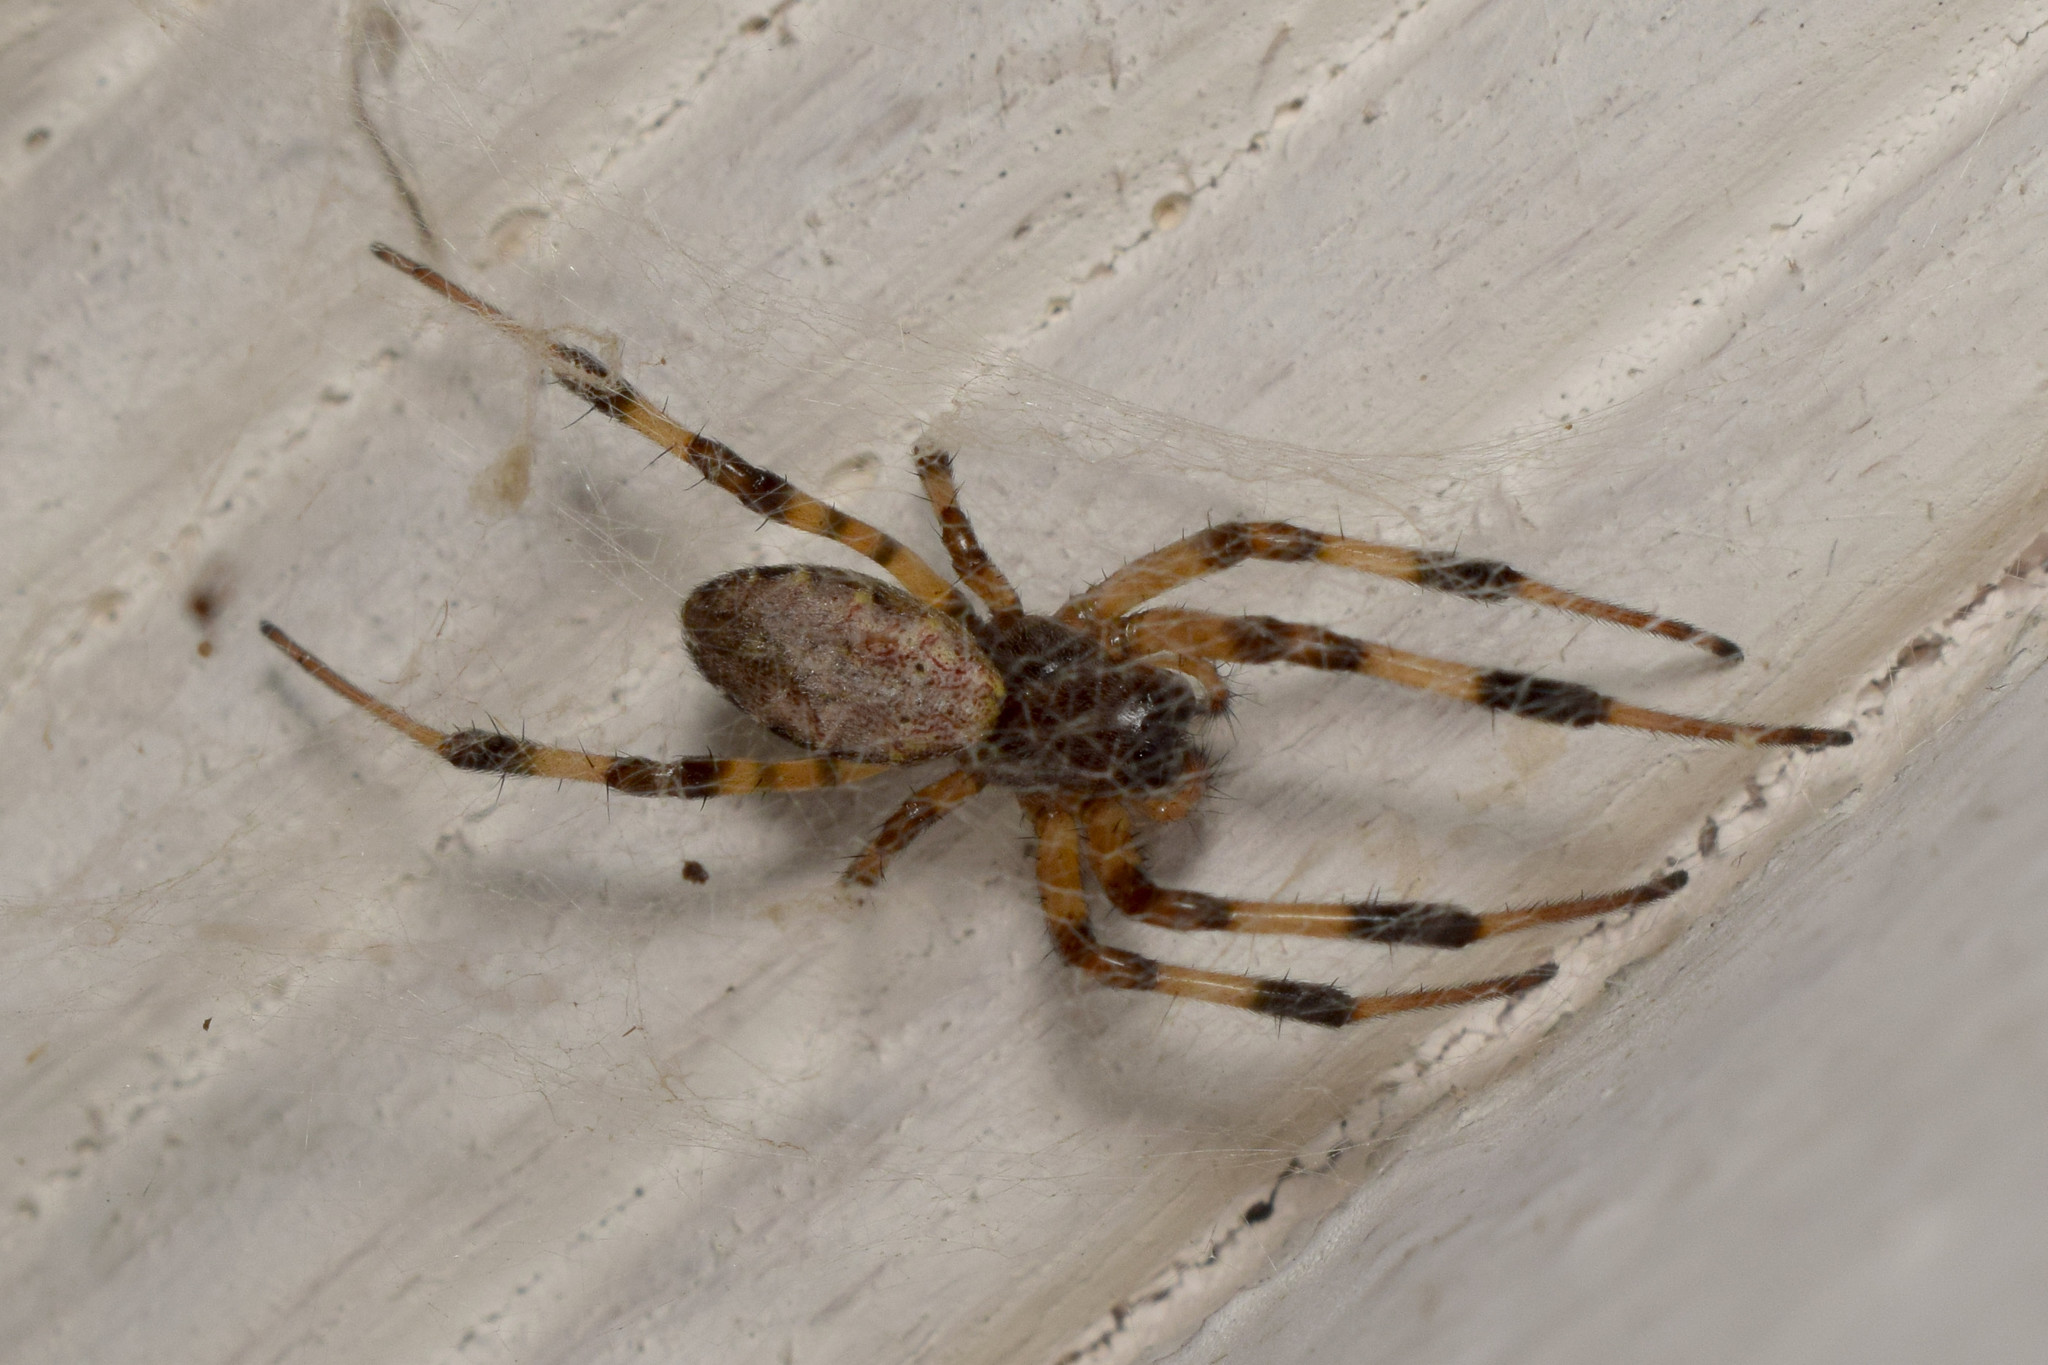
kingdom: Animalia
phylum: Arthropoda
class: Arachnida
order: Araneae
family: Araneidae
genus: Nephilengys
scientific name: Nephilengys malabarensis
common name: Asian hermit spider
